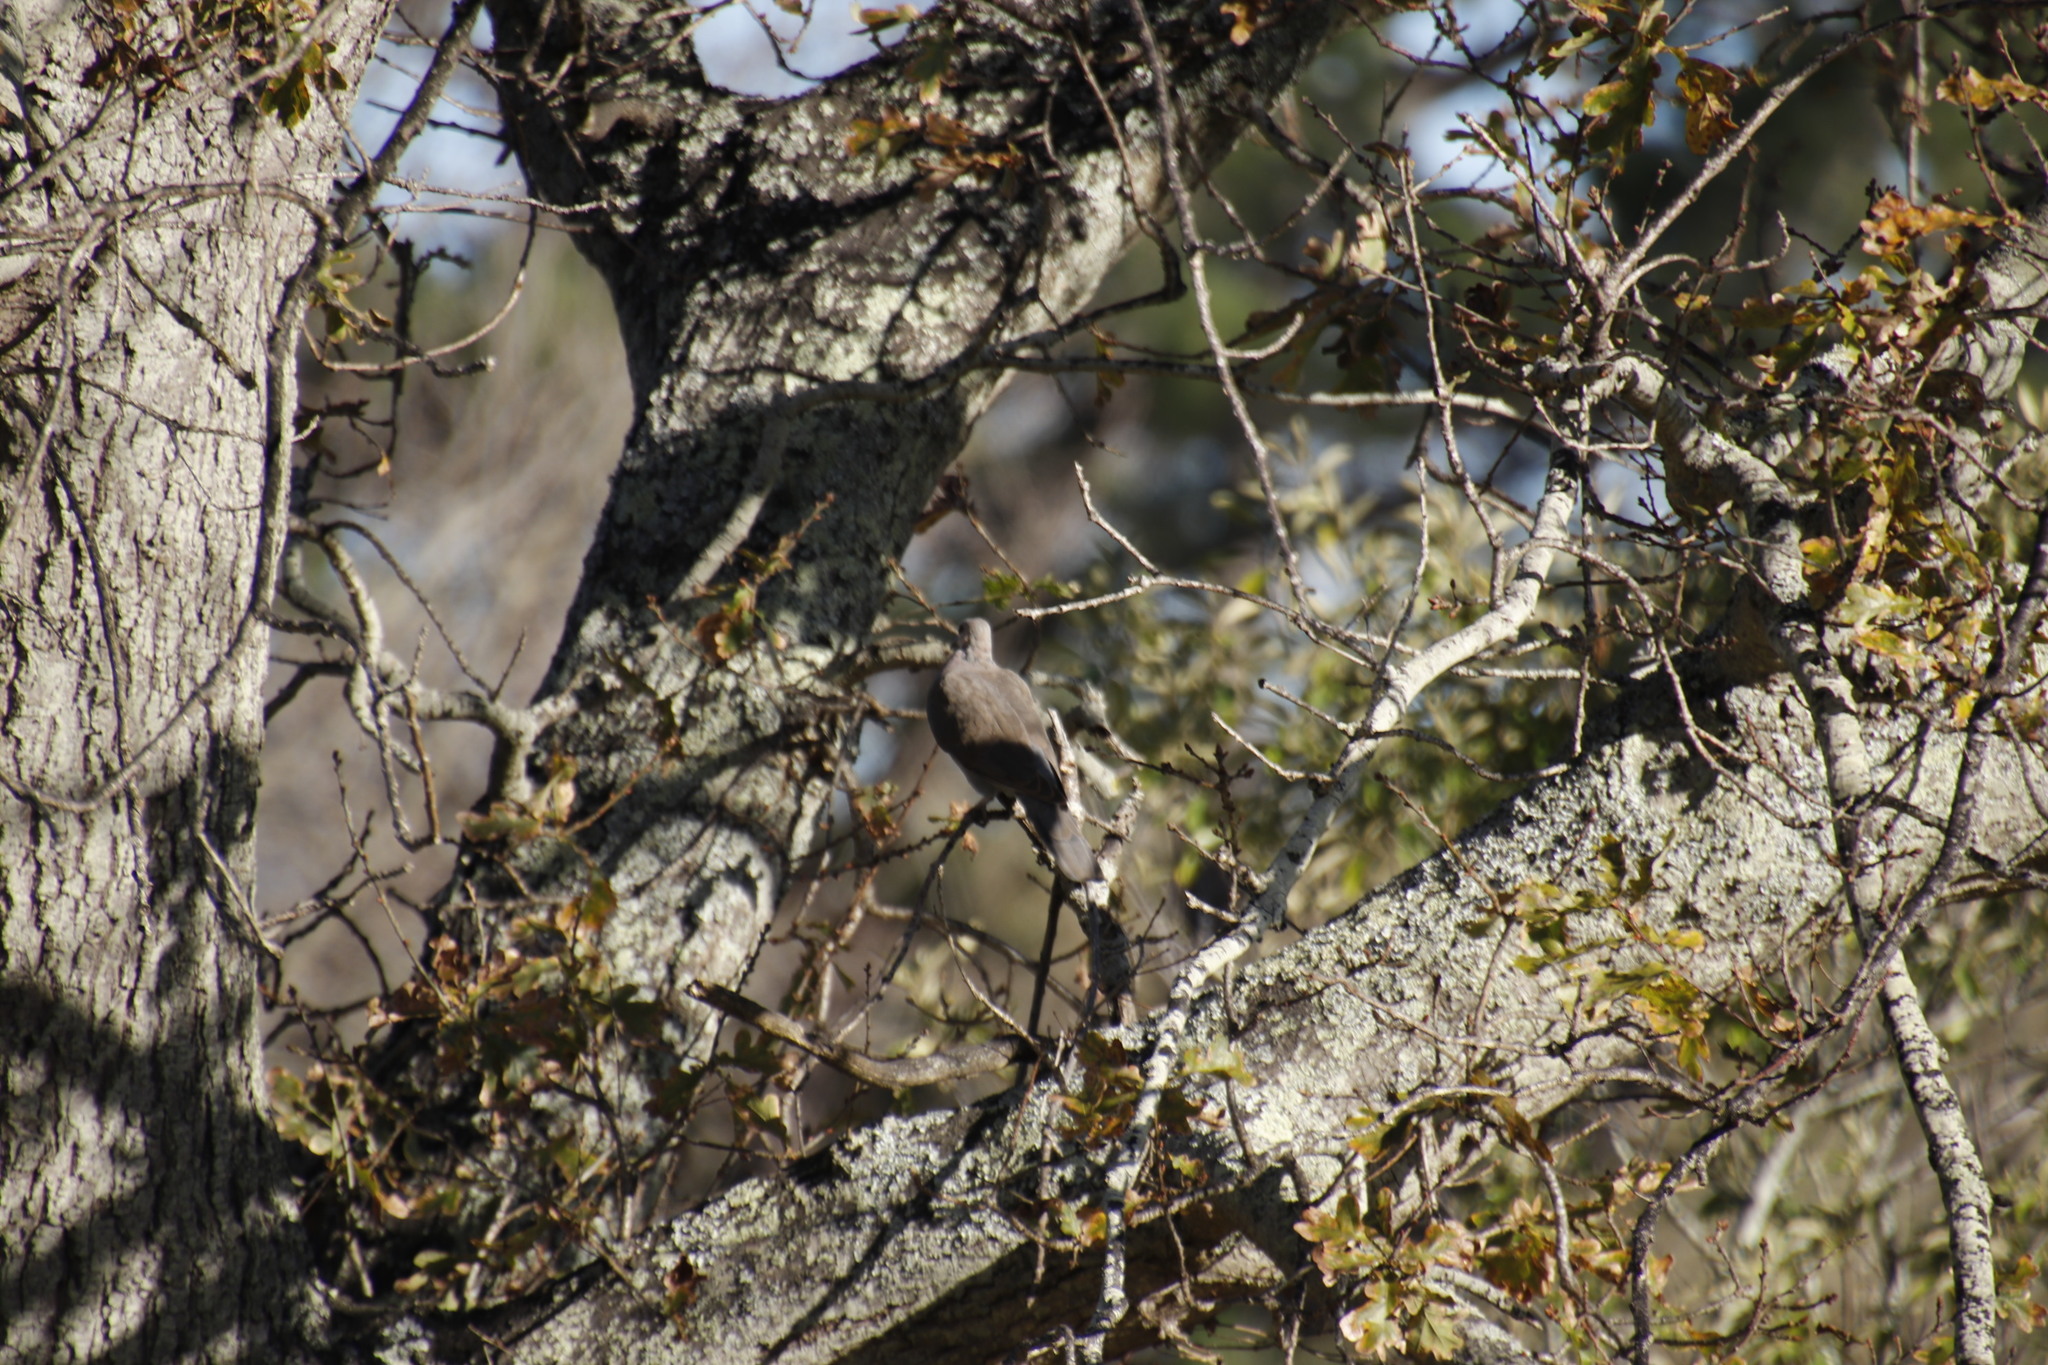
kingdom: Animalia
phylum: Chordata
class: Aves
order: Columbiformes
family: Columbidae
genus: Streptopelia
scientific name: Streptopelia semitorquata
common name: Red-eyed dove
